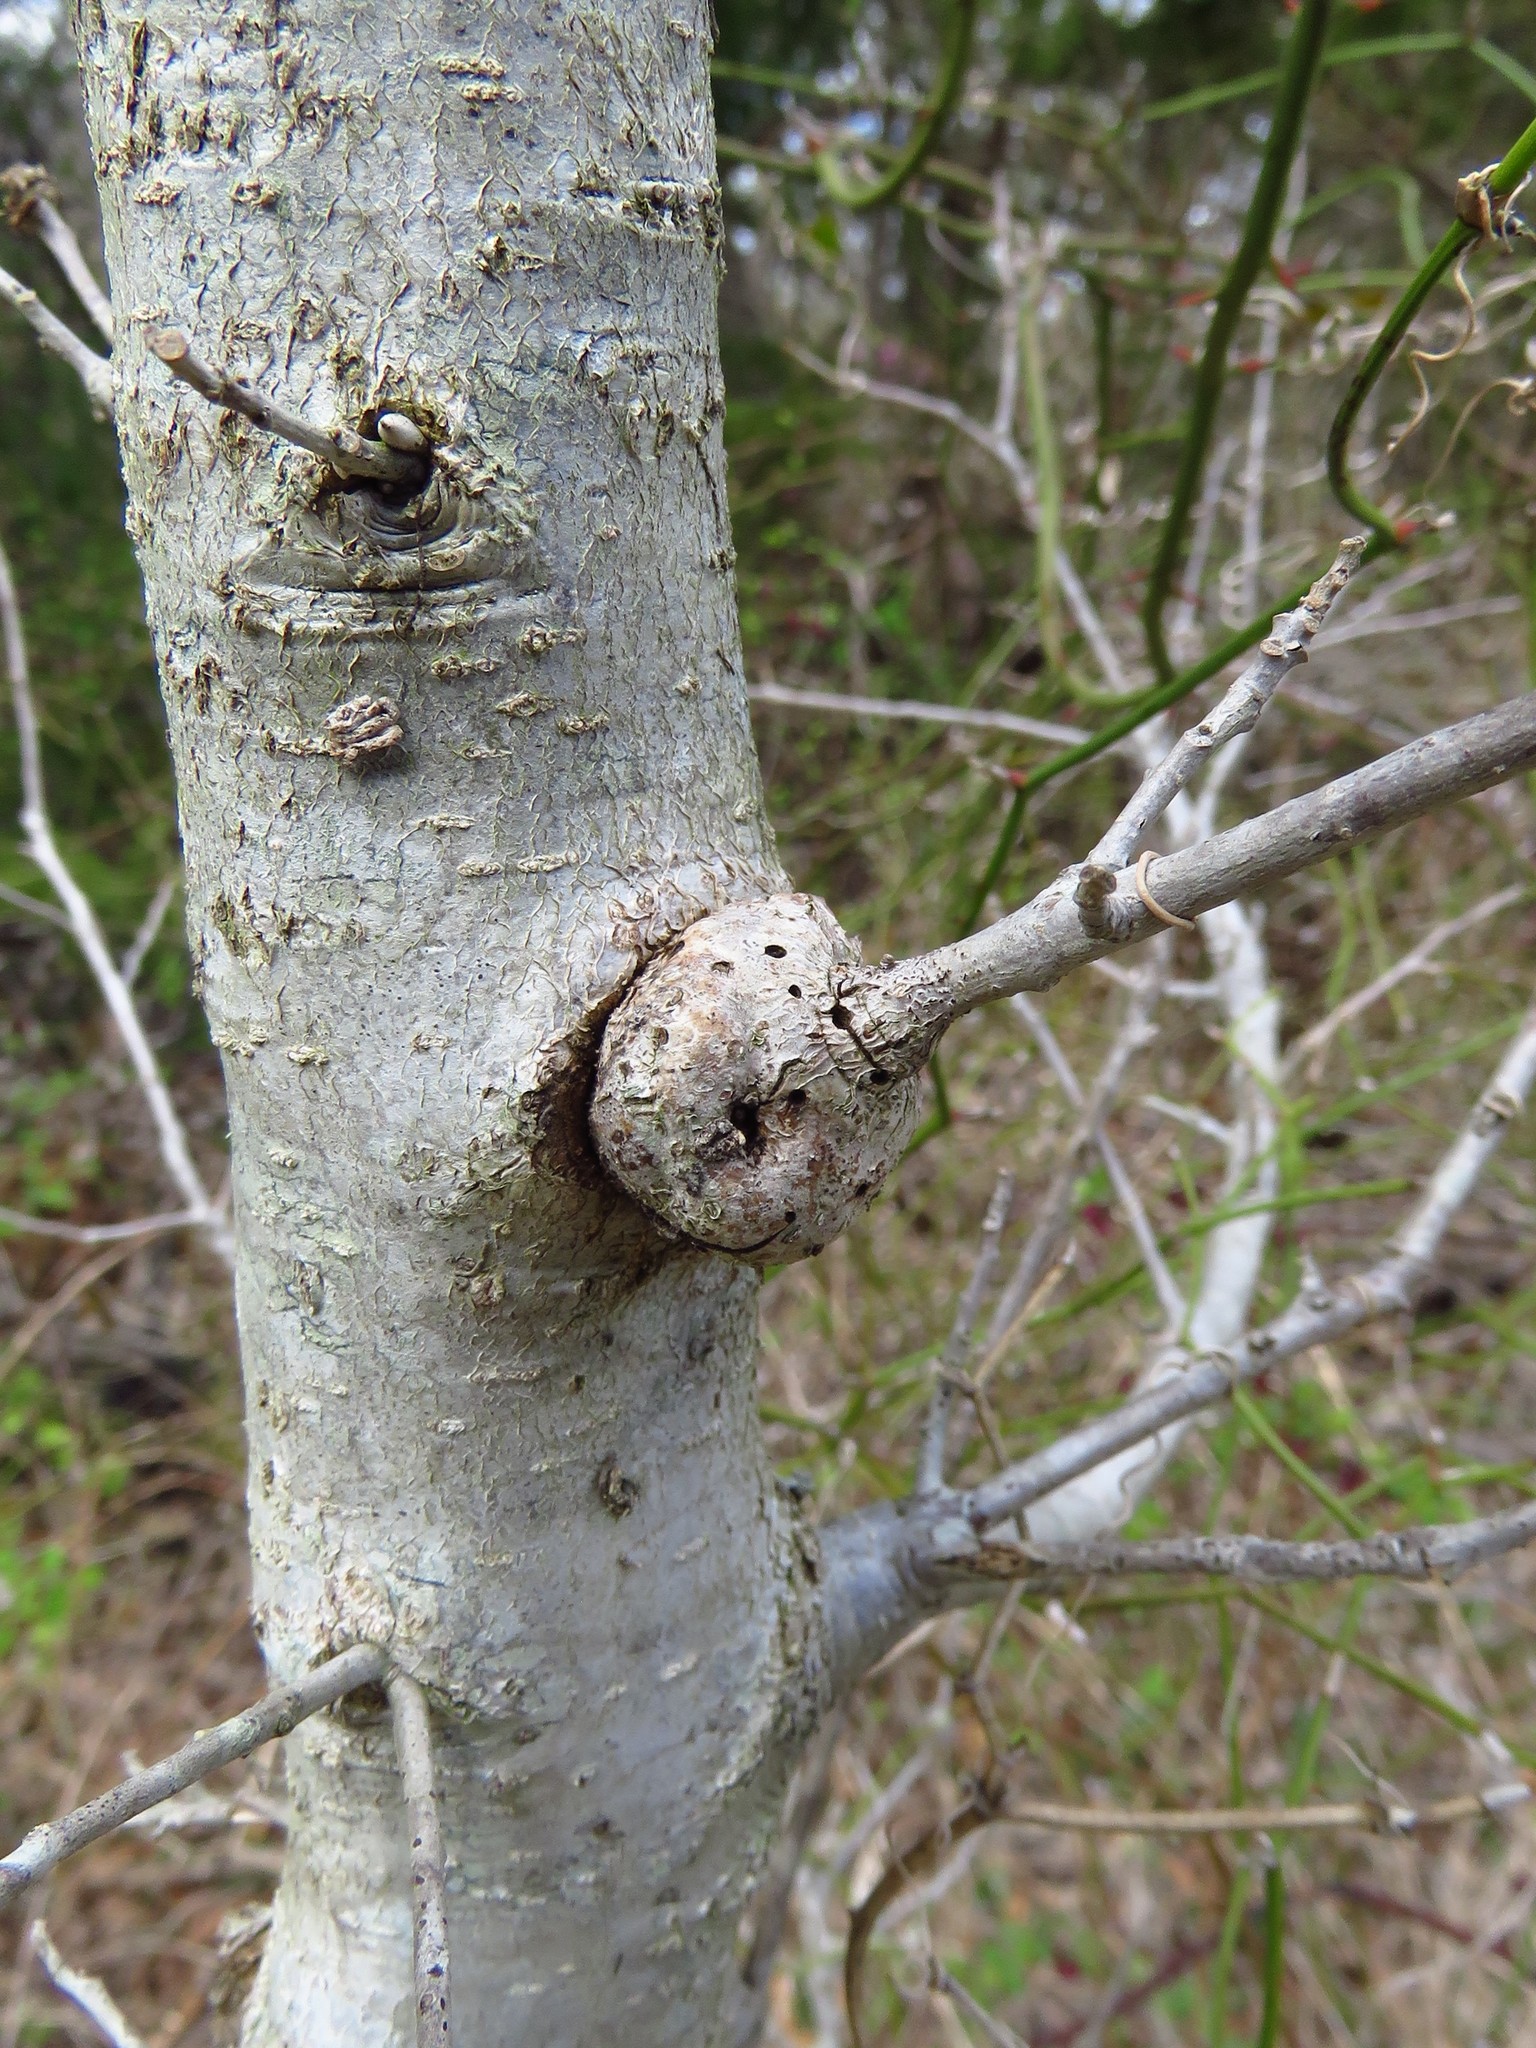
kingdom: Animalia
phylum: Arthropoda
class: Insecta
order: Hymenoptera
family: Cynipidae
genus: Callirhytis
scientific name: Callirhytis
